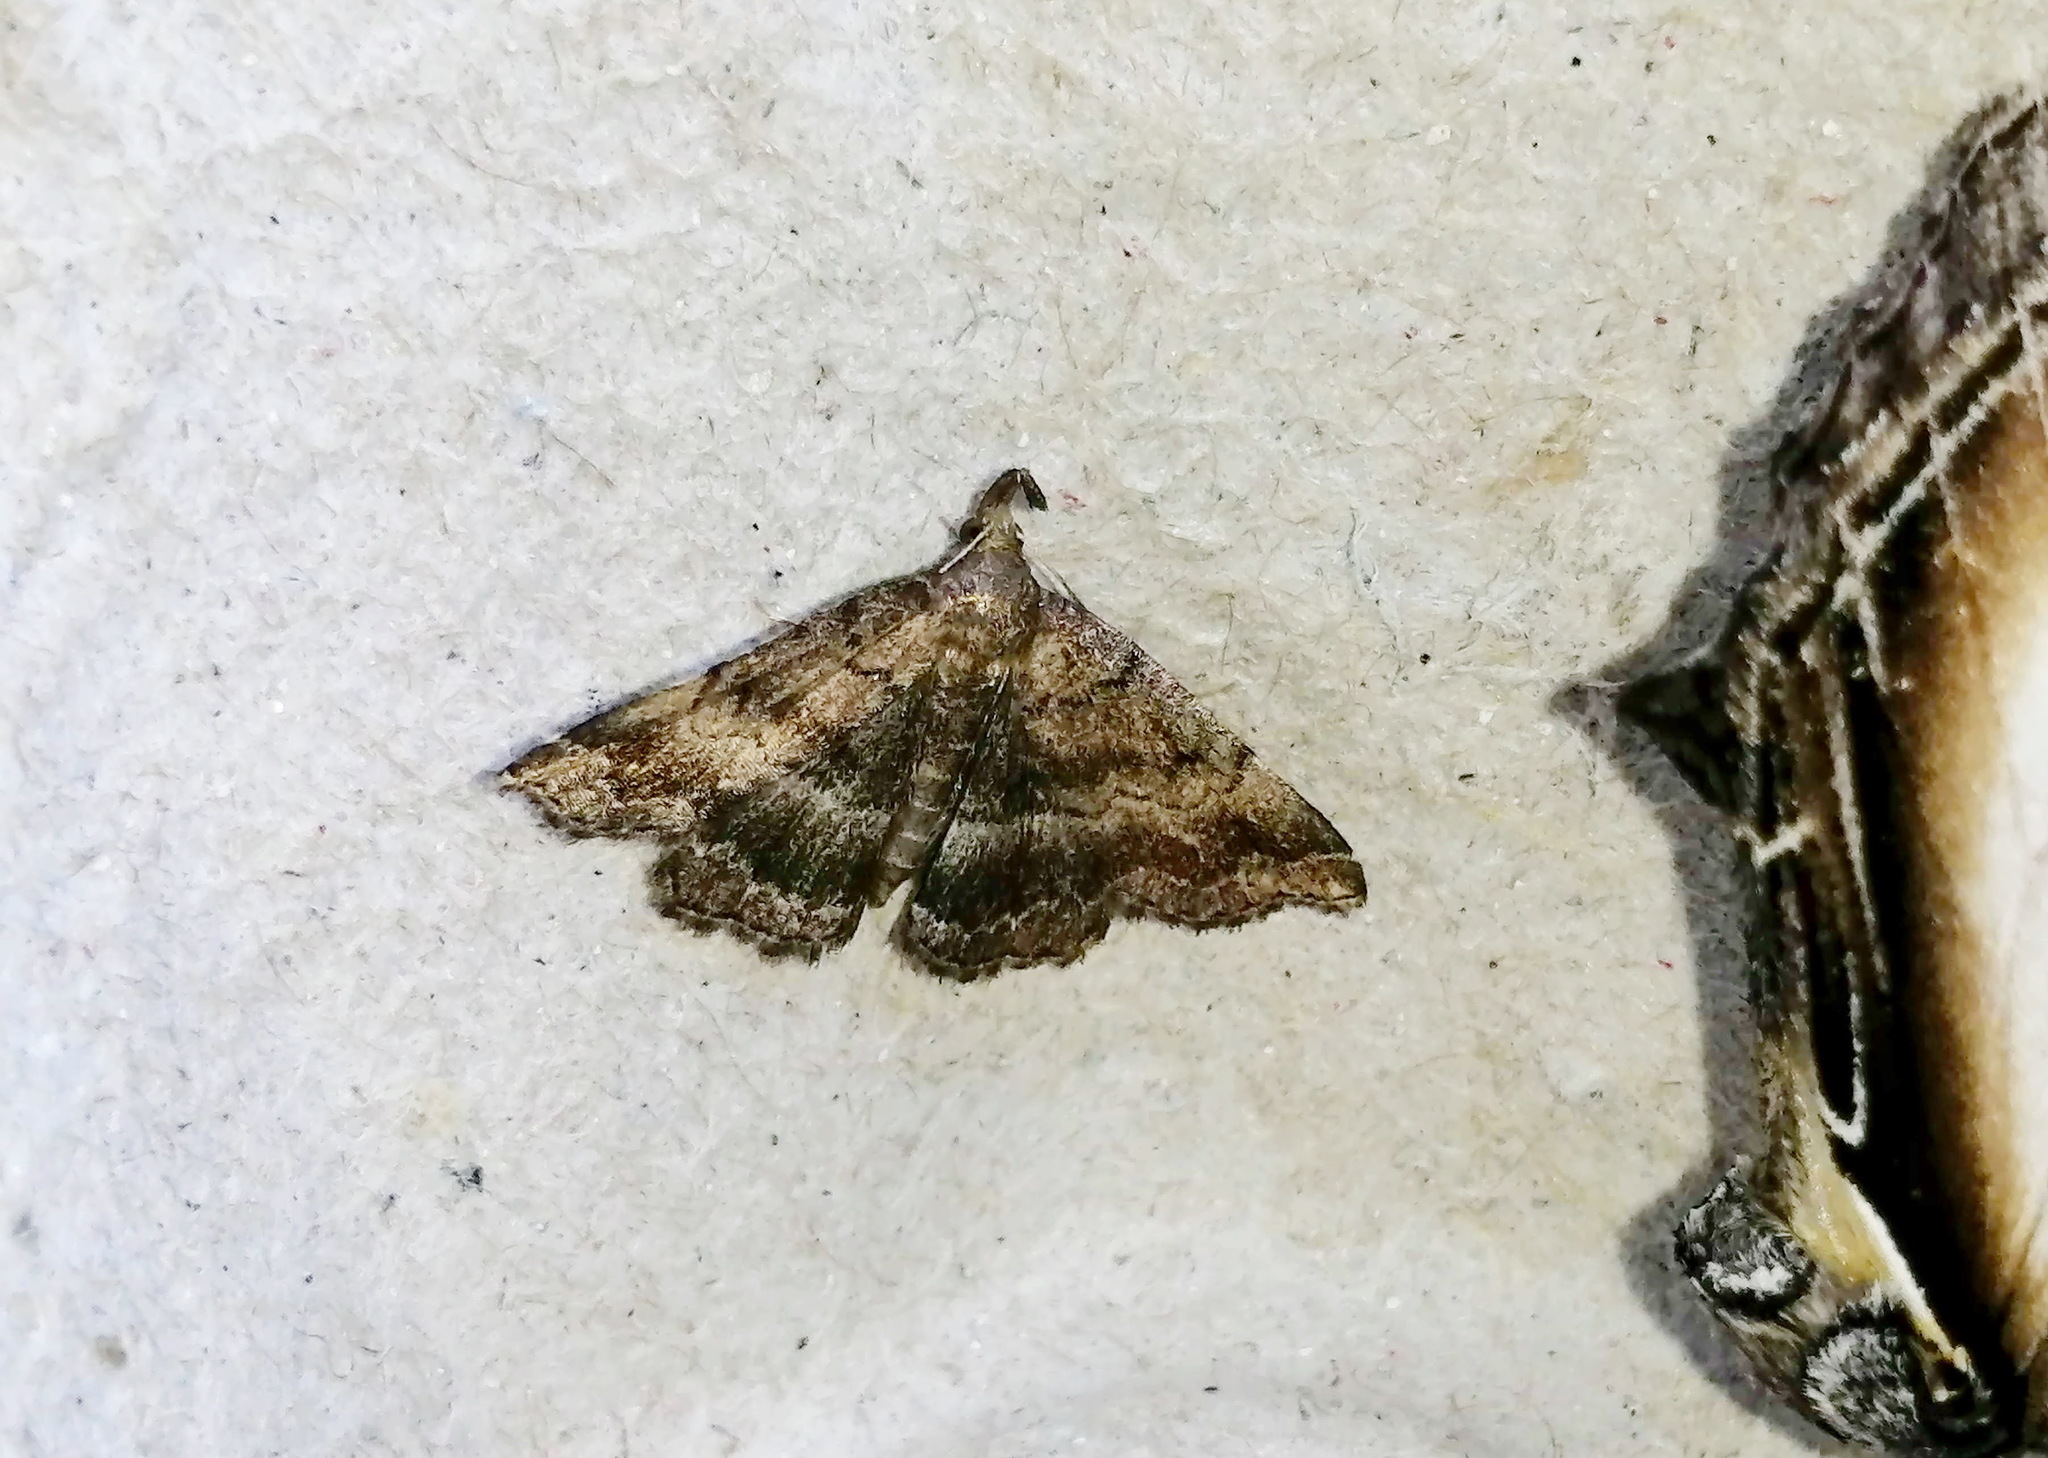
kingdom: Animalia
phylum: Arthropoda
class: Insecta
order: Lepidoptera
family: Erebidae
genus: Phalaenostola
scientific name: Phalaenostola larentioides
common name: Black-banded owlet
